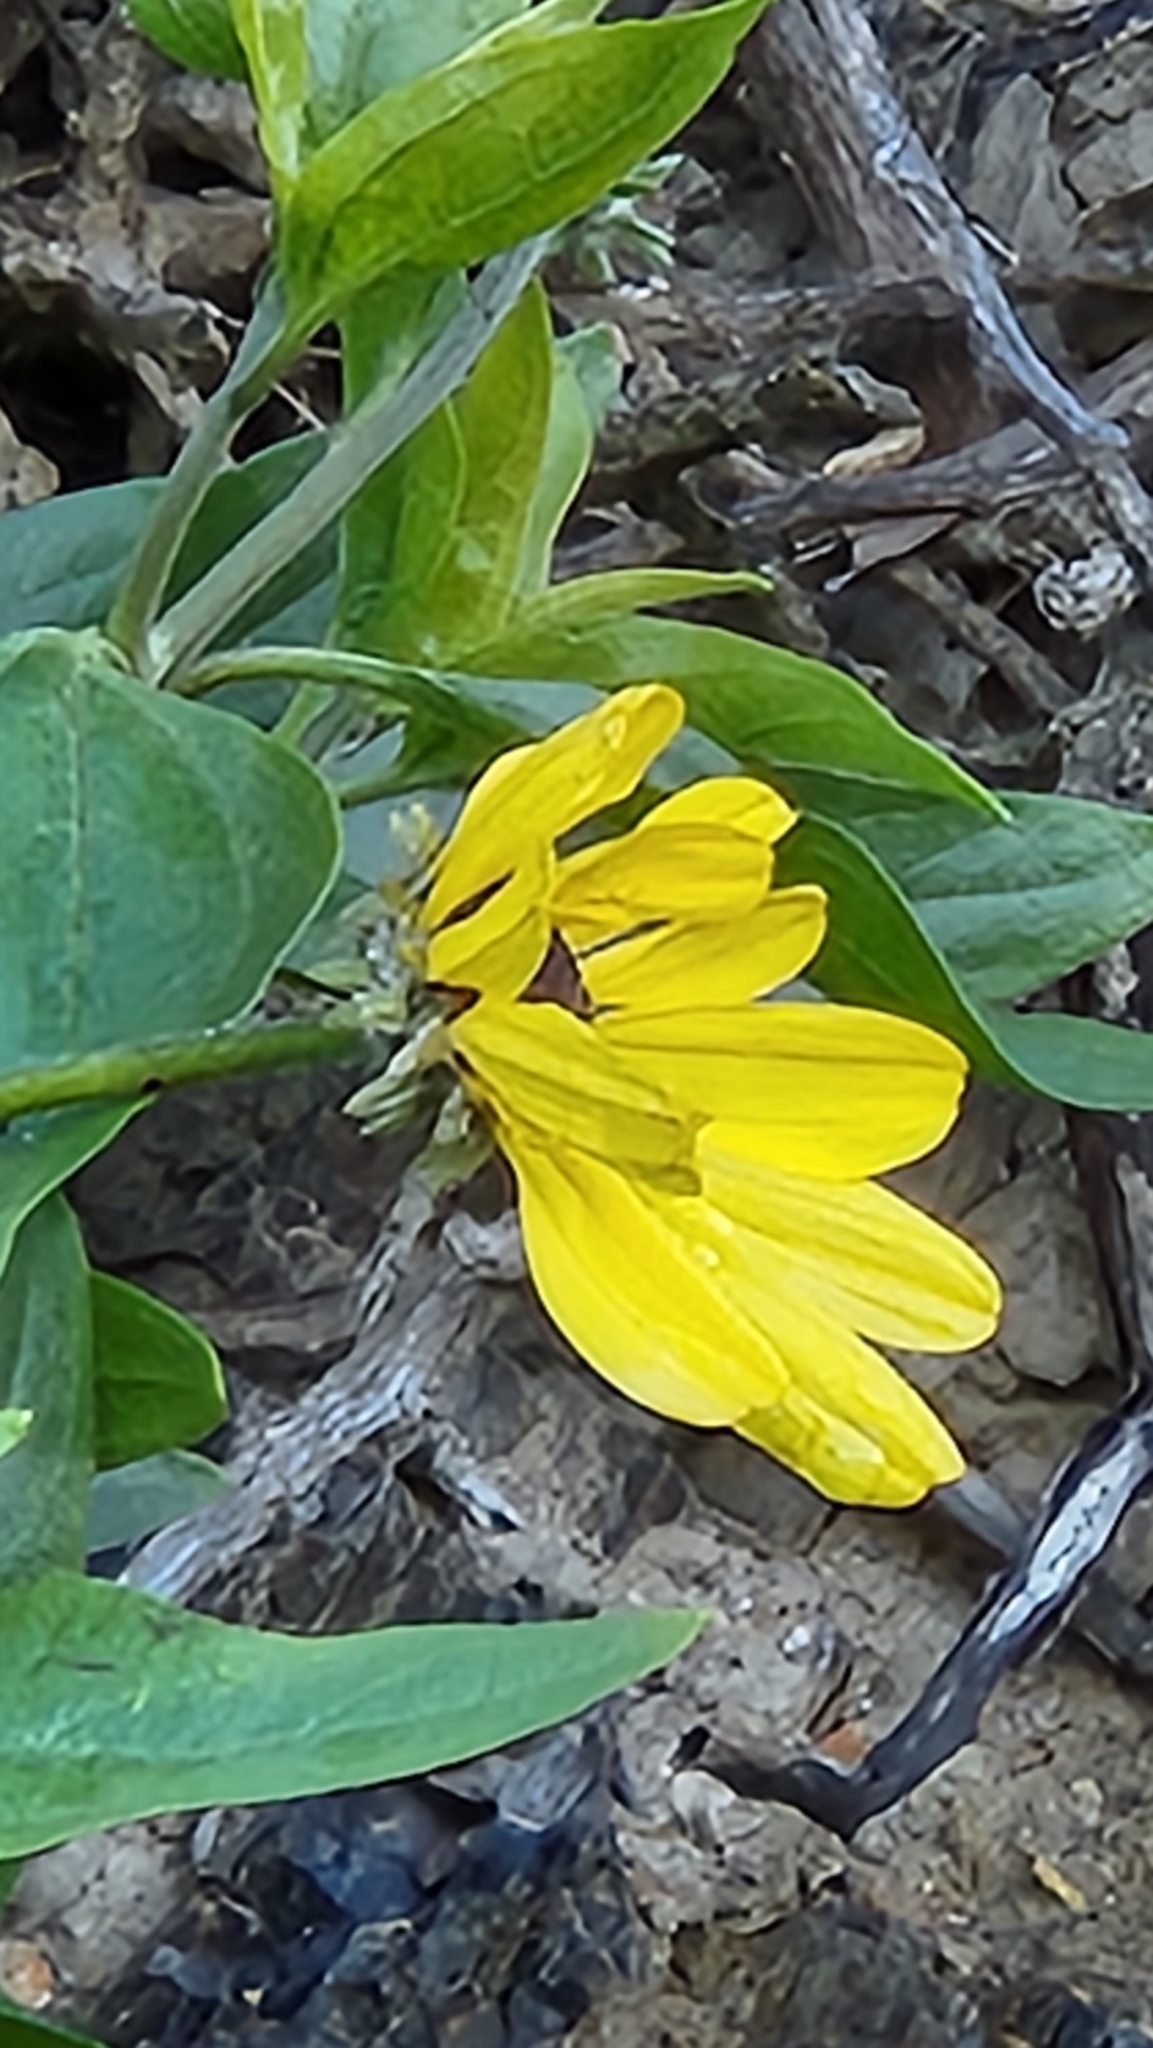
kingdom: Plantae
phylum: Tracheophyta
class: Magnoliopsida
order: Asterales
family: Asteraceae
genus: Encelia
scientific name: Encelia californica
